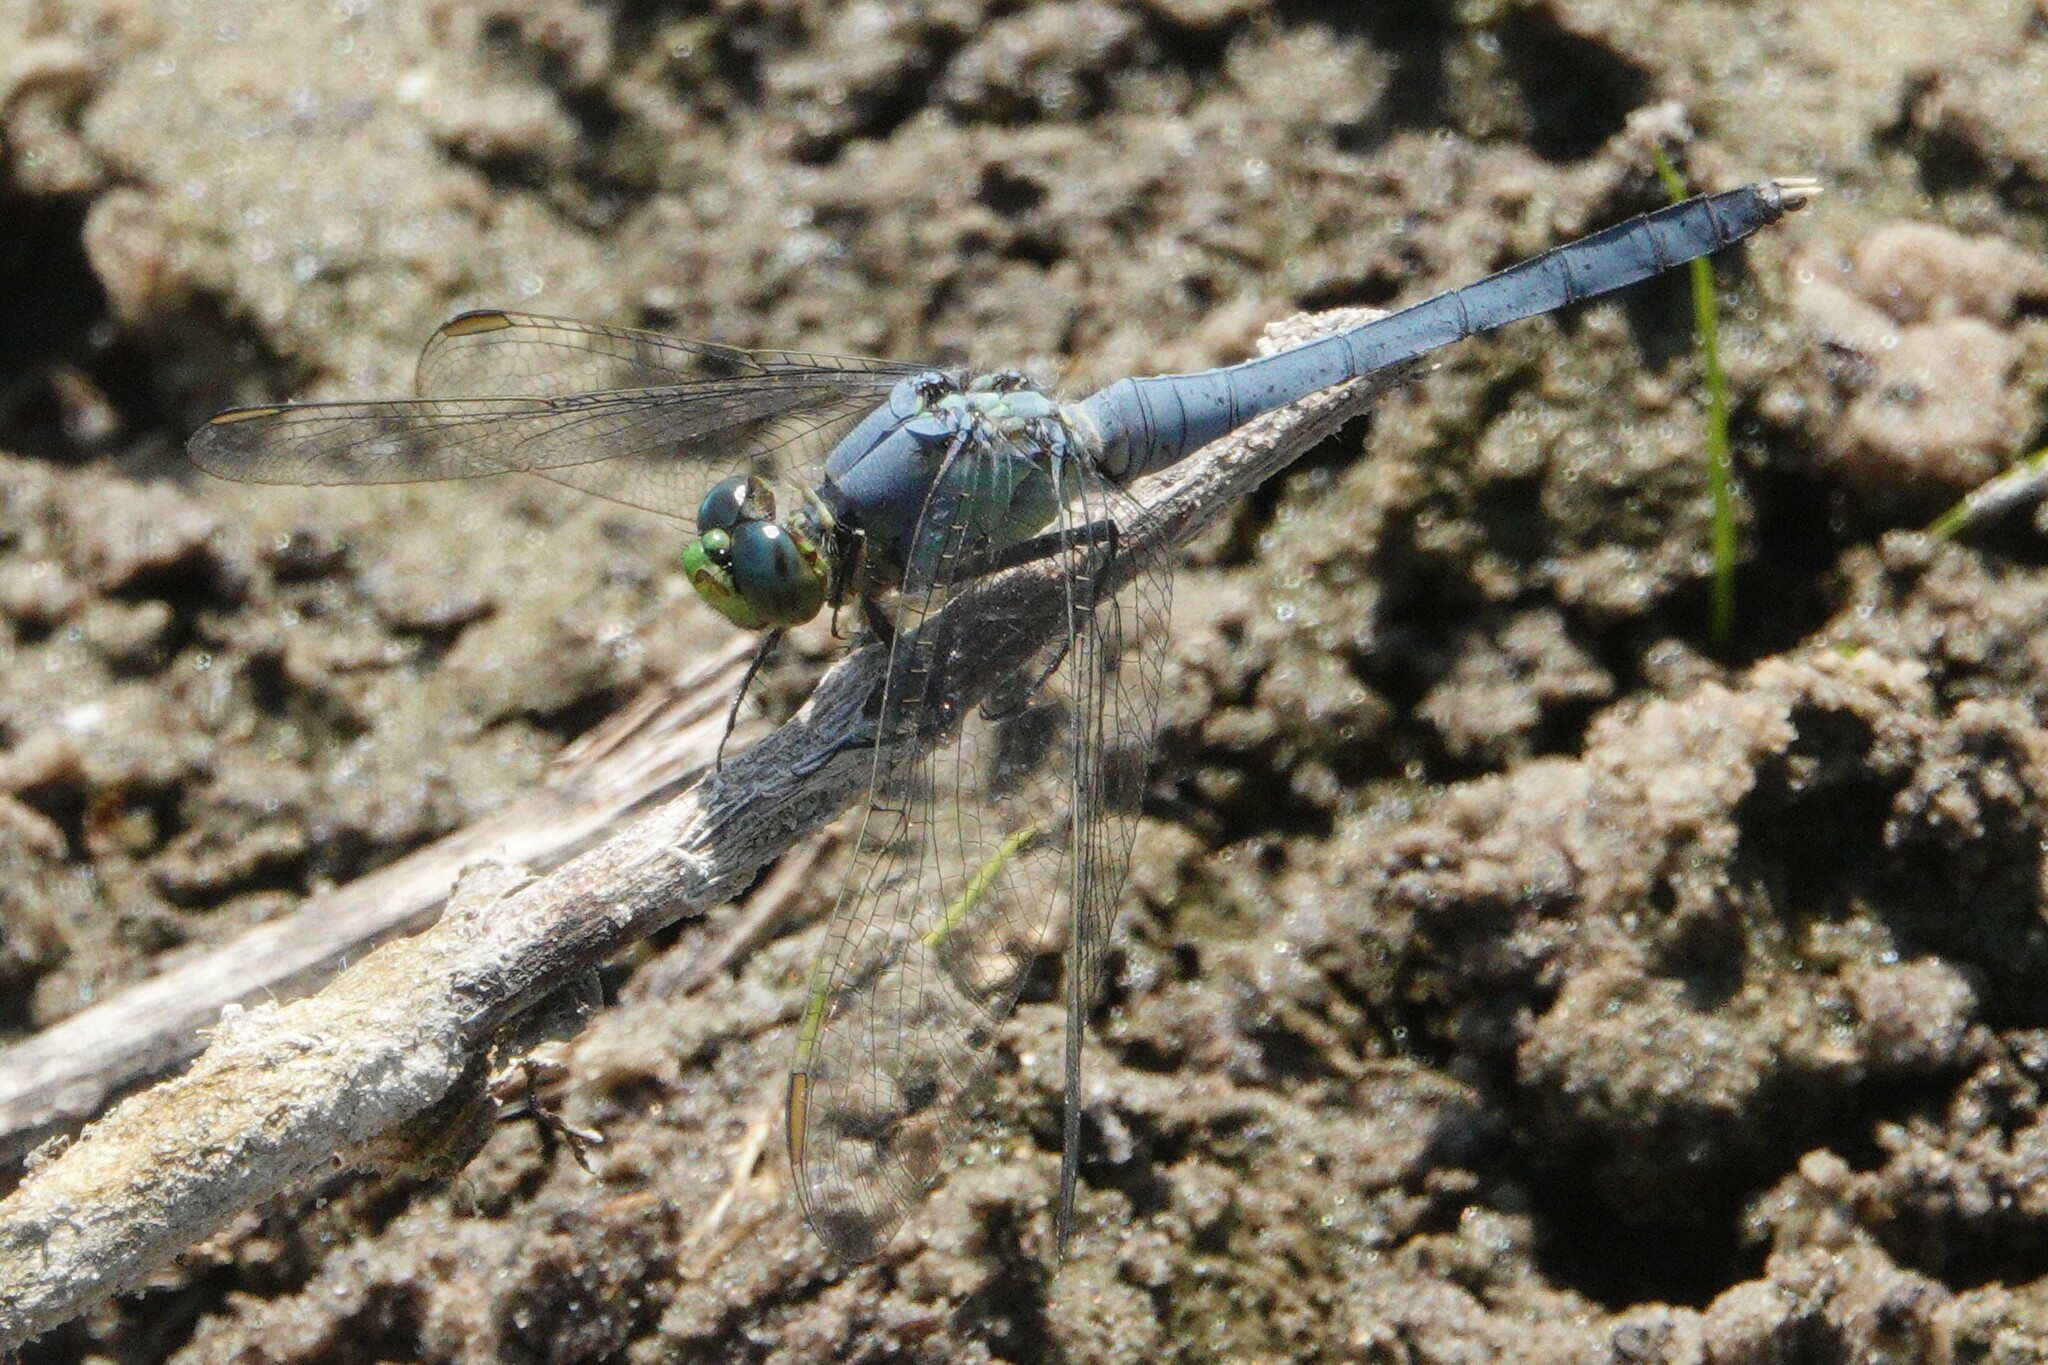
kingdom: Animalia
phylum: Arthropoda
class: Insecta
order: Odonata
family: Libellulidae
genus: Erythemis
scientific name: Erythemis simplicicollis
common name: Eastern pondhawk
